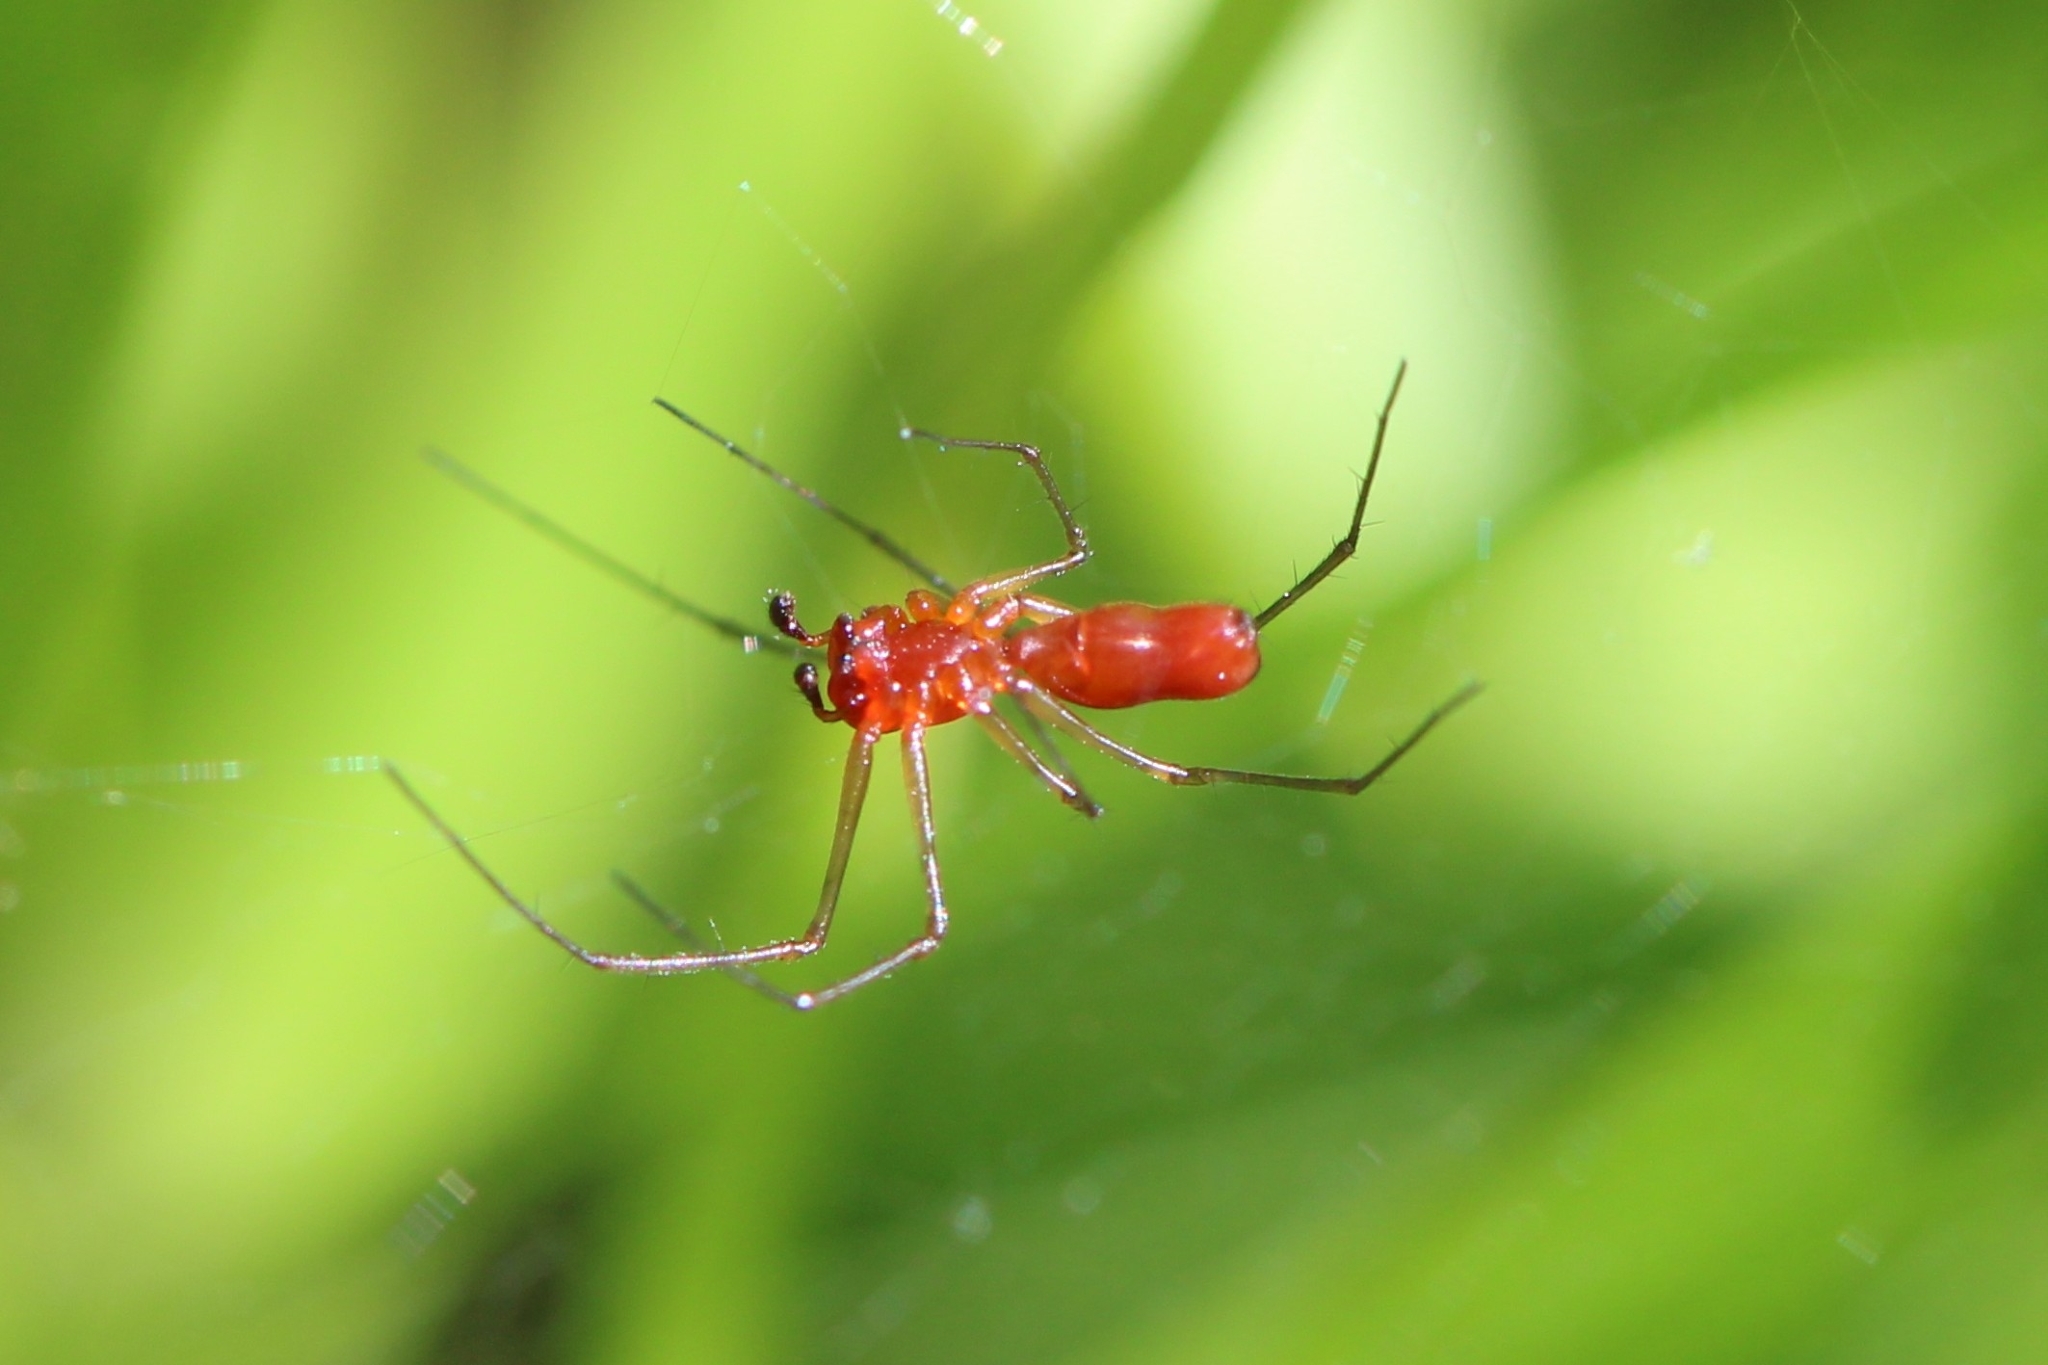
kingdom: Animalia
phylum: Arthropoda
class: Arachnida
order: Araneae
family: Linyphiidae
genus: Florinda
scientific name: Florinda coccinea
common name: Black-tailed red sheetweaver
